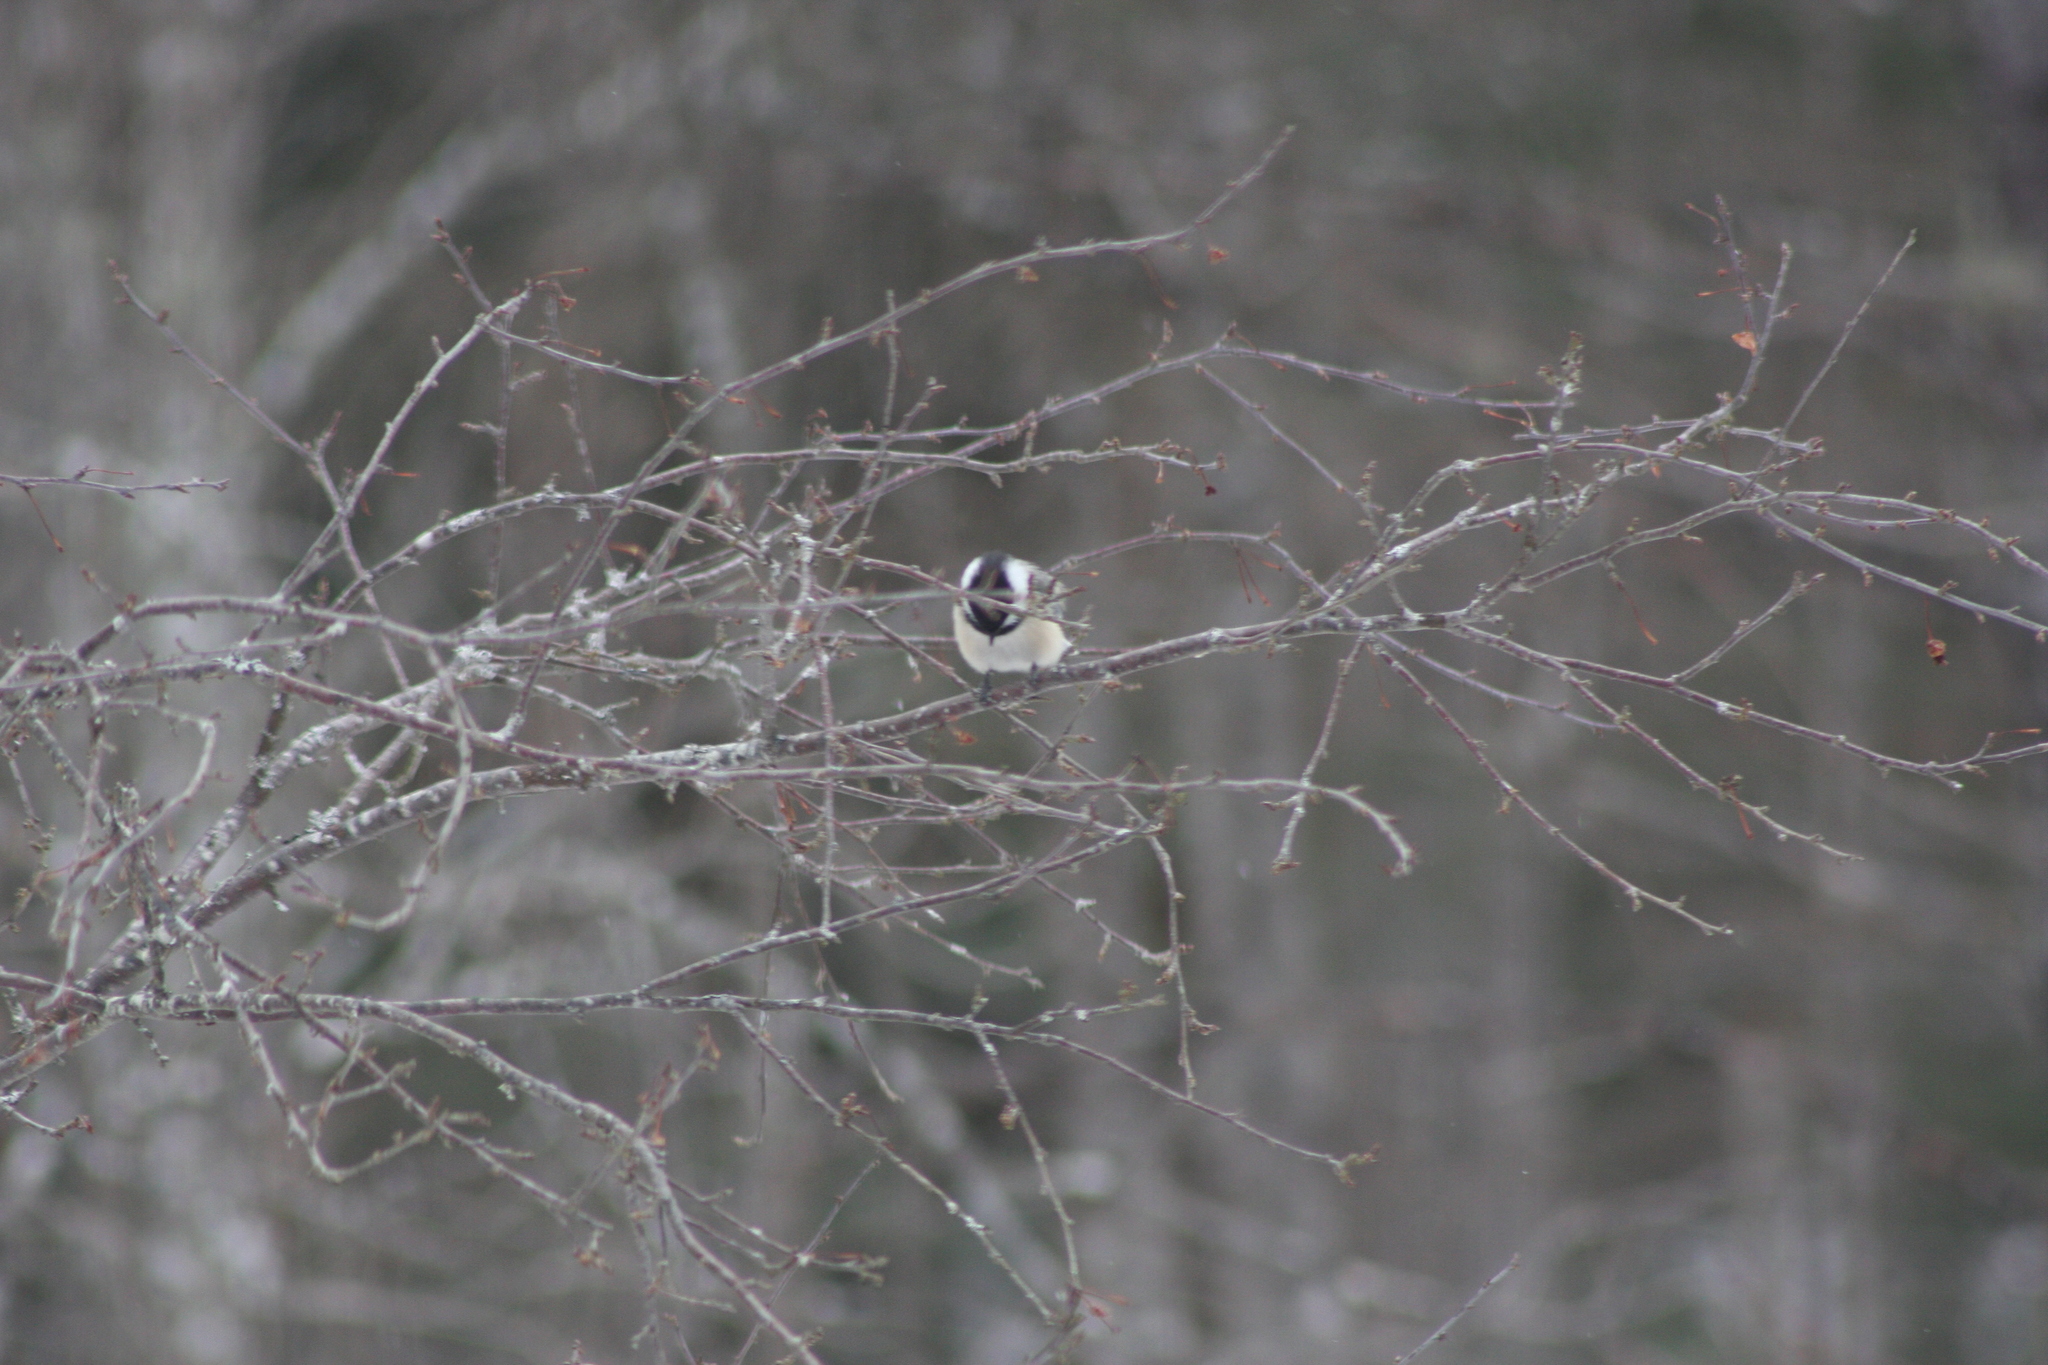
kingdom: Animalia
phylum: Chordata
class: Aves
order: Passeriformes
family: Paridae
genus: Poecile
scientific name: Poecile atricapillus
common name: Black-capped chickadee
